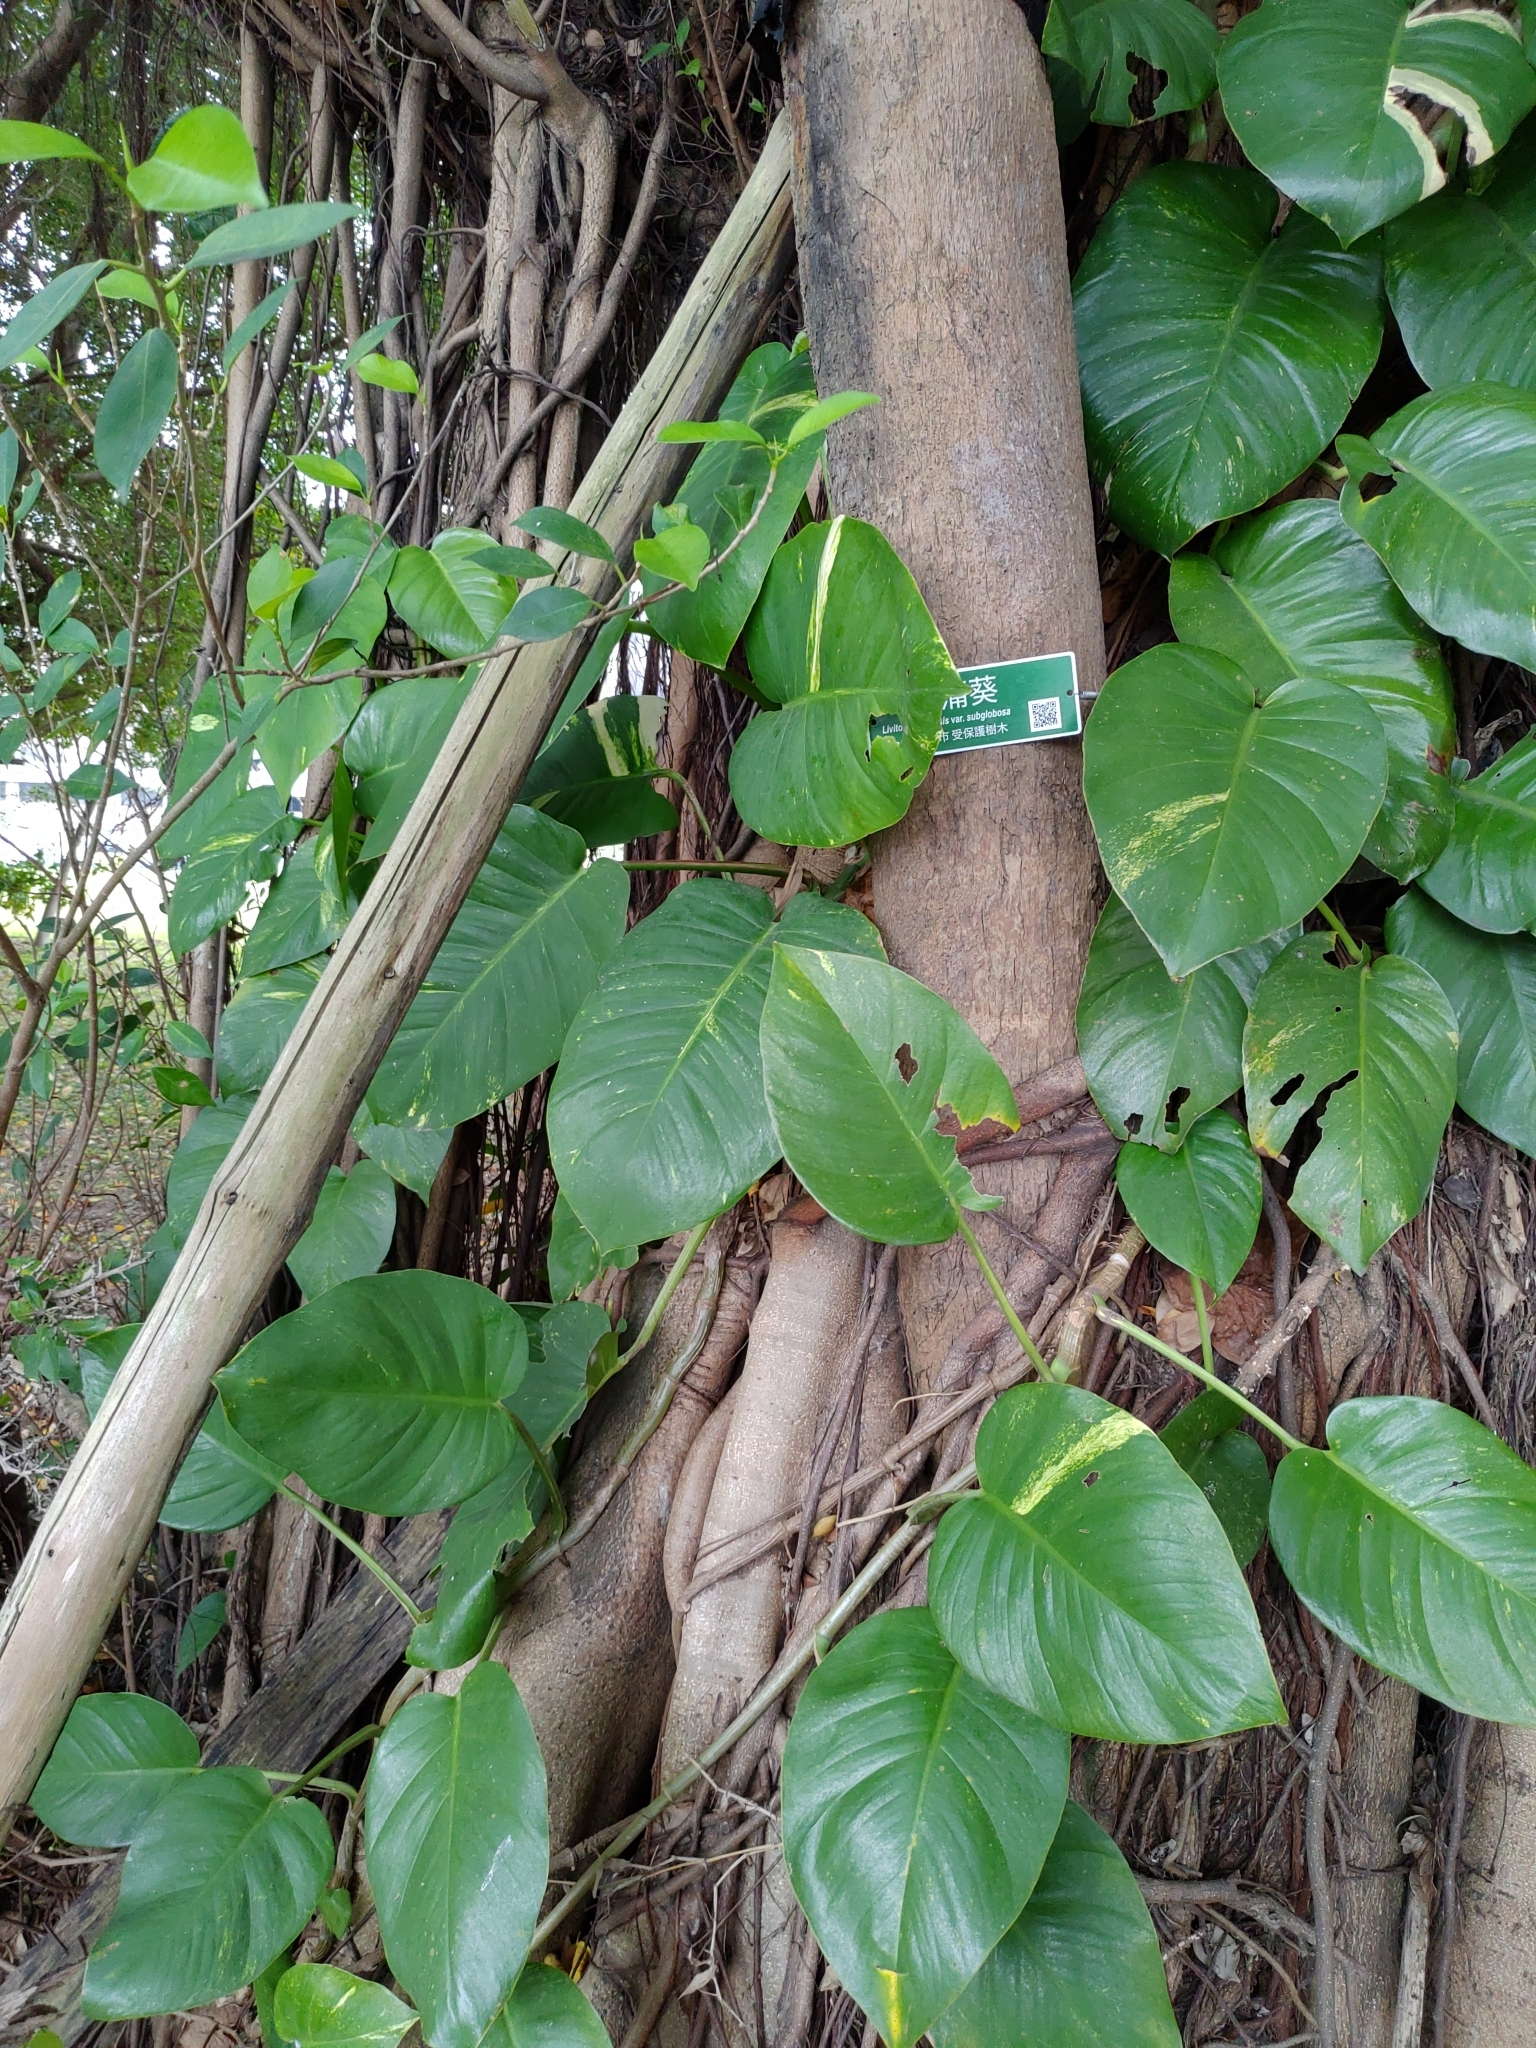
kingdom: Plantae
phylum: Tracheophyta
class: Liliopsida
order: Alismatales
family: Araceae
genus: Epipremnum
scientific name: Epipremnum aureum
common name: Golden hunter's-robe
